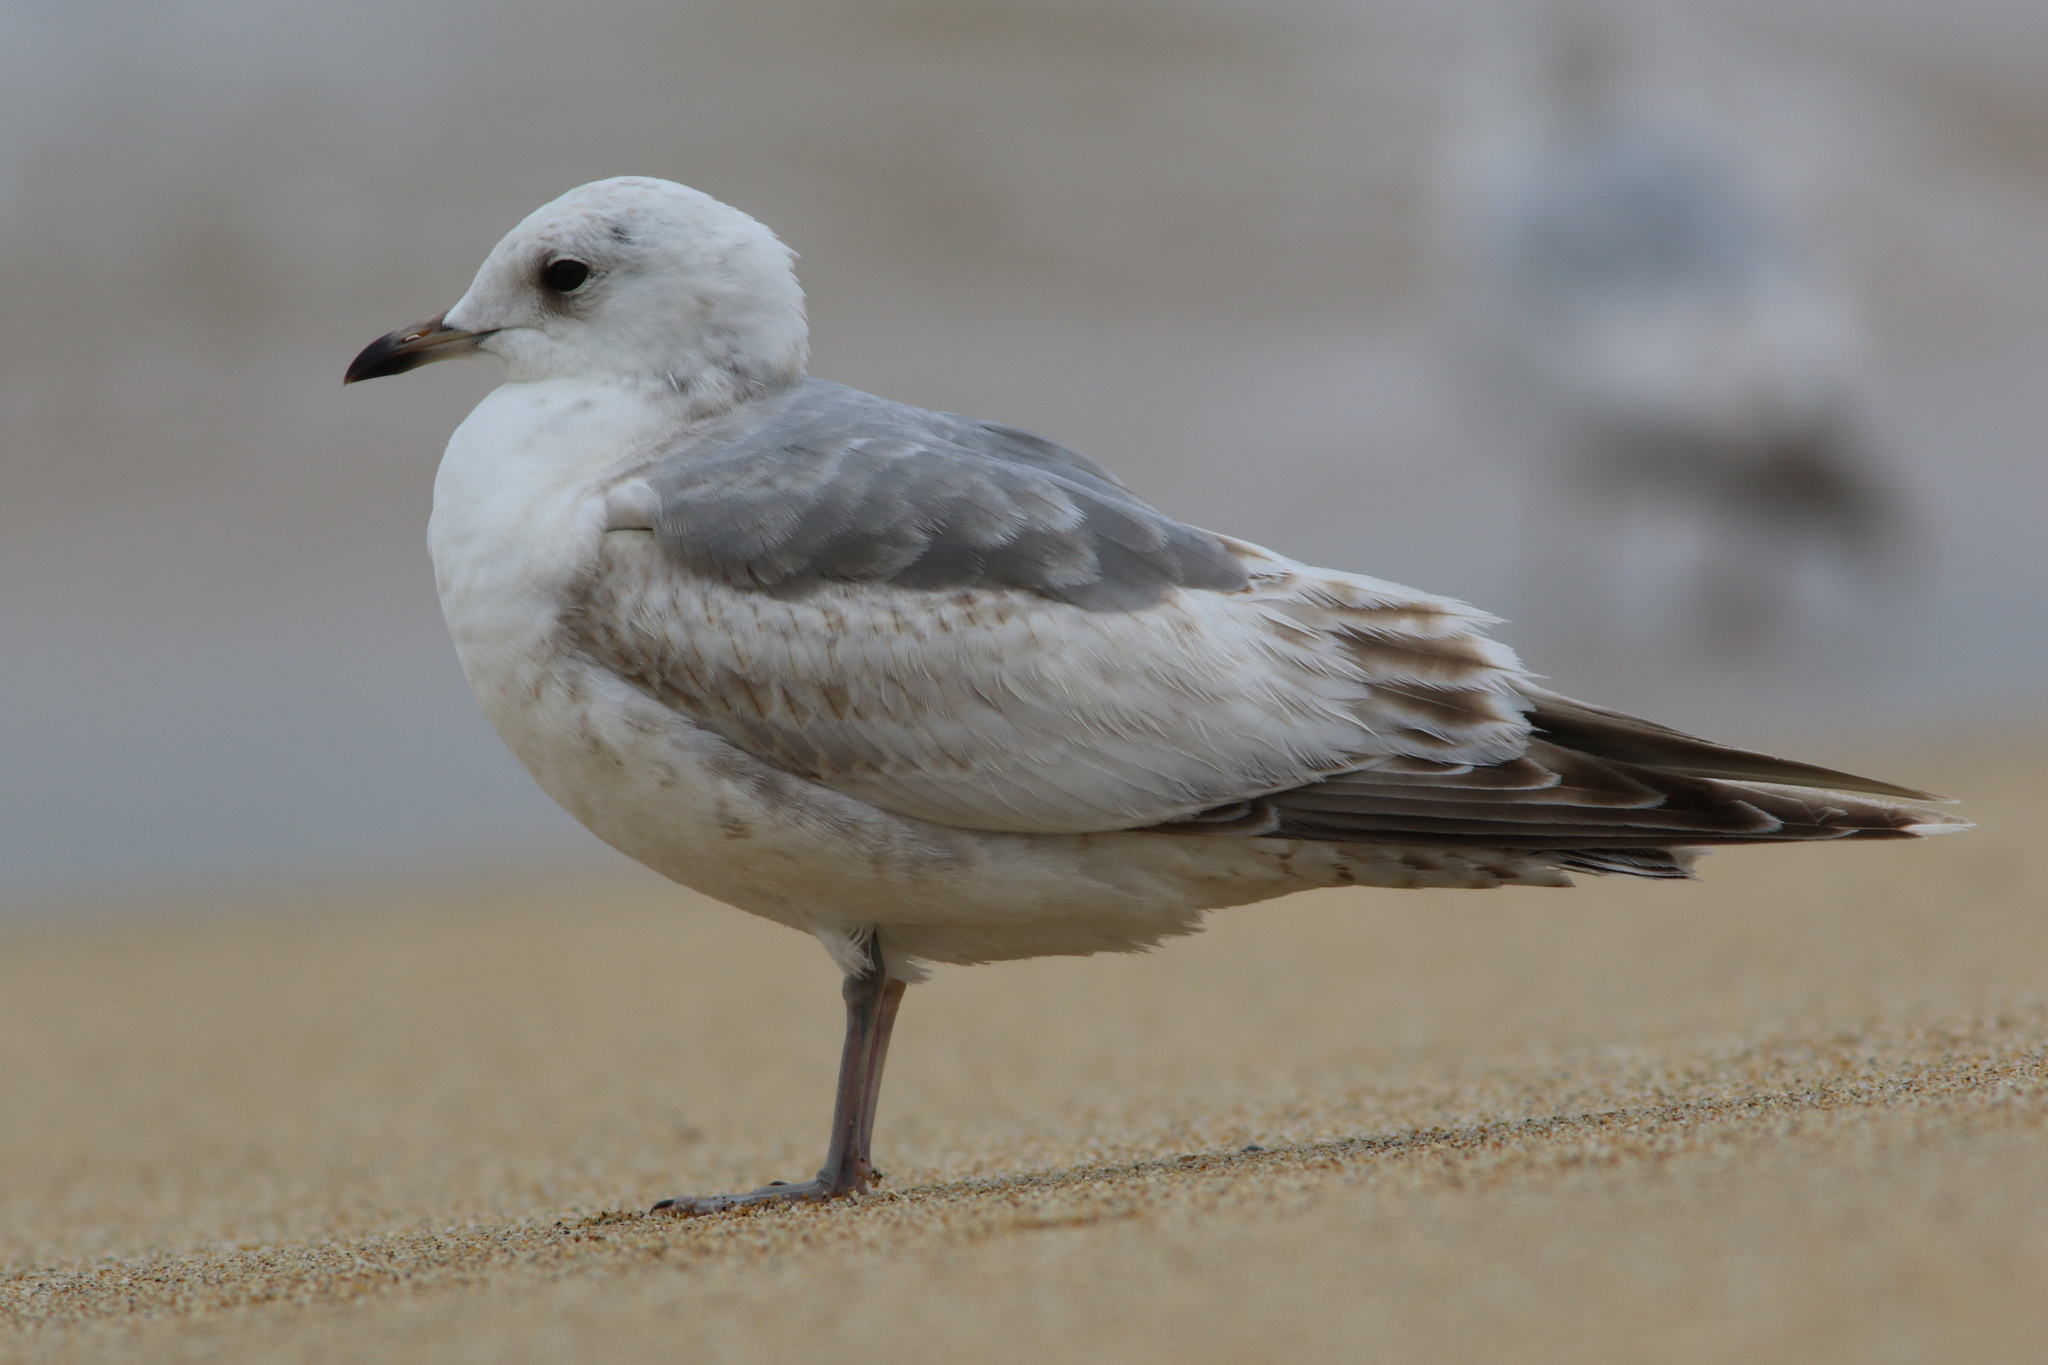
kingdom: Animalia
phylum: Chordata
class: Aves
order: Charadriiformes
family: Laridae
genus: Larus
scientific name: Larus brachyrhynchus
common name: Short-billed gull
